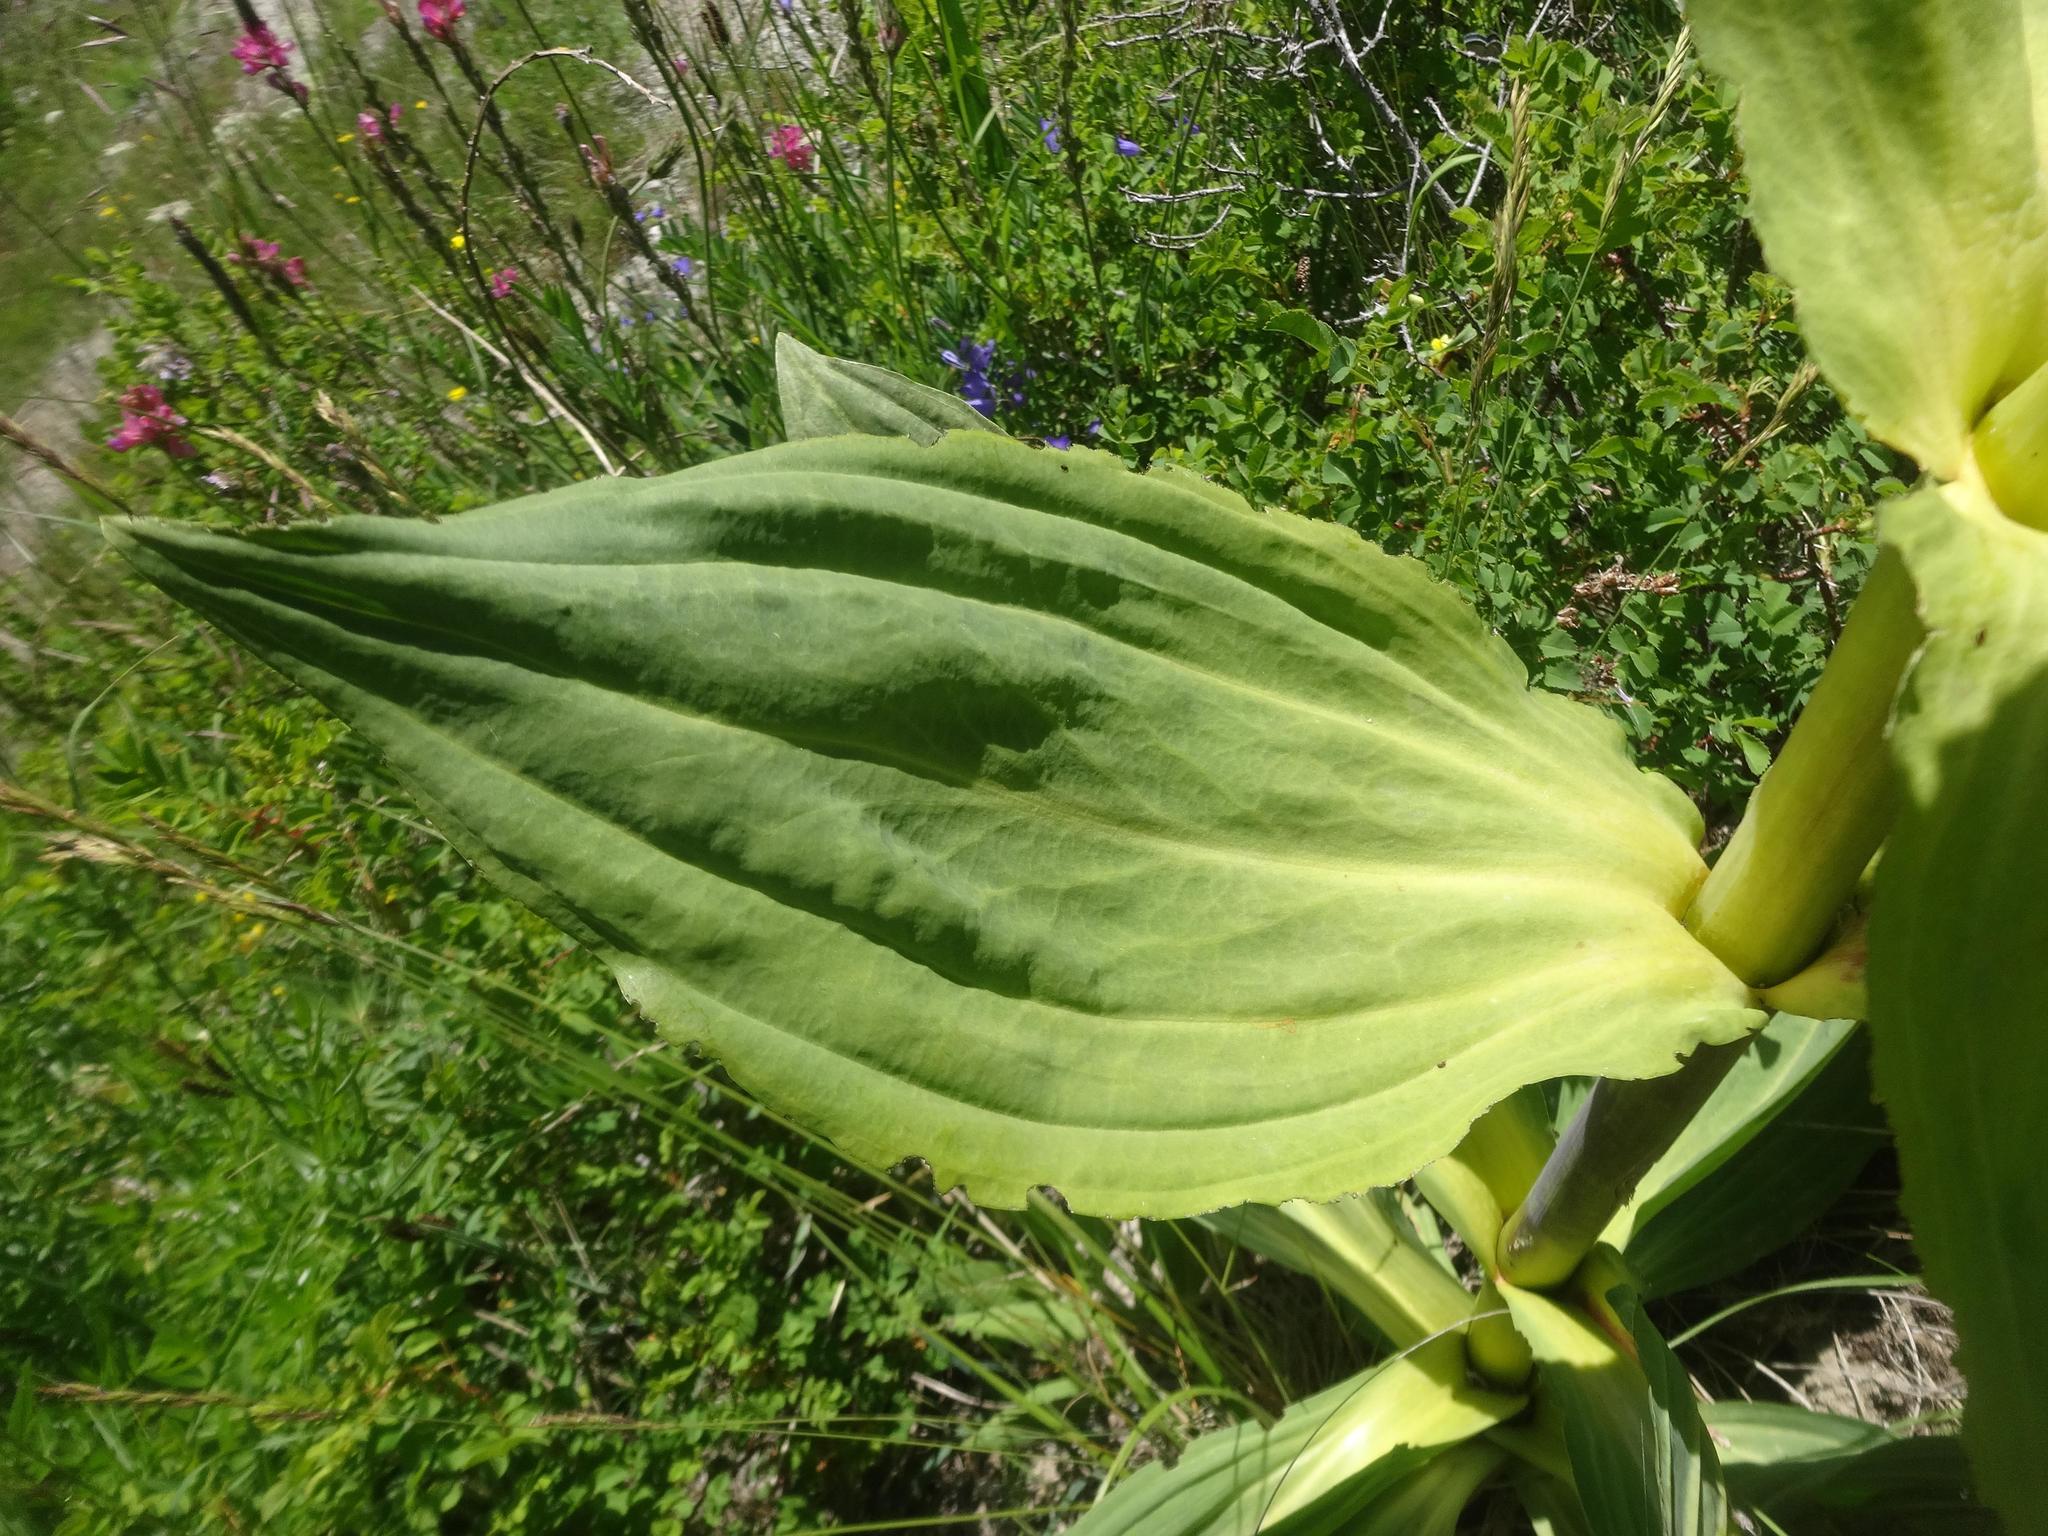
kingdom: Plantae
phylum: Tracheophyta
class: Magnoliopsida
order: Gentianales
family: Gentianaceae
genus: Gentiana
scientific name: Gentiana lutea
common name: Great yellow gentian
